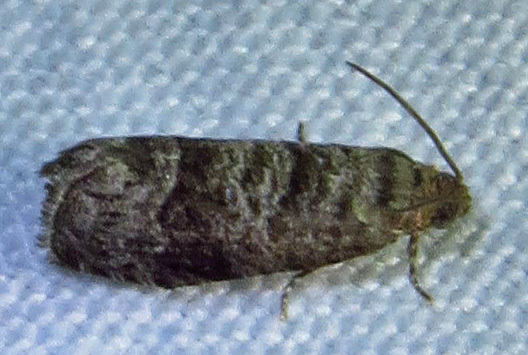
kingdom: Animalia
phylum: Arthropoda
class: Insecta
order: Lepidoptera
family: Noctuidae
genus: Aspila
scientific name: Aspila
